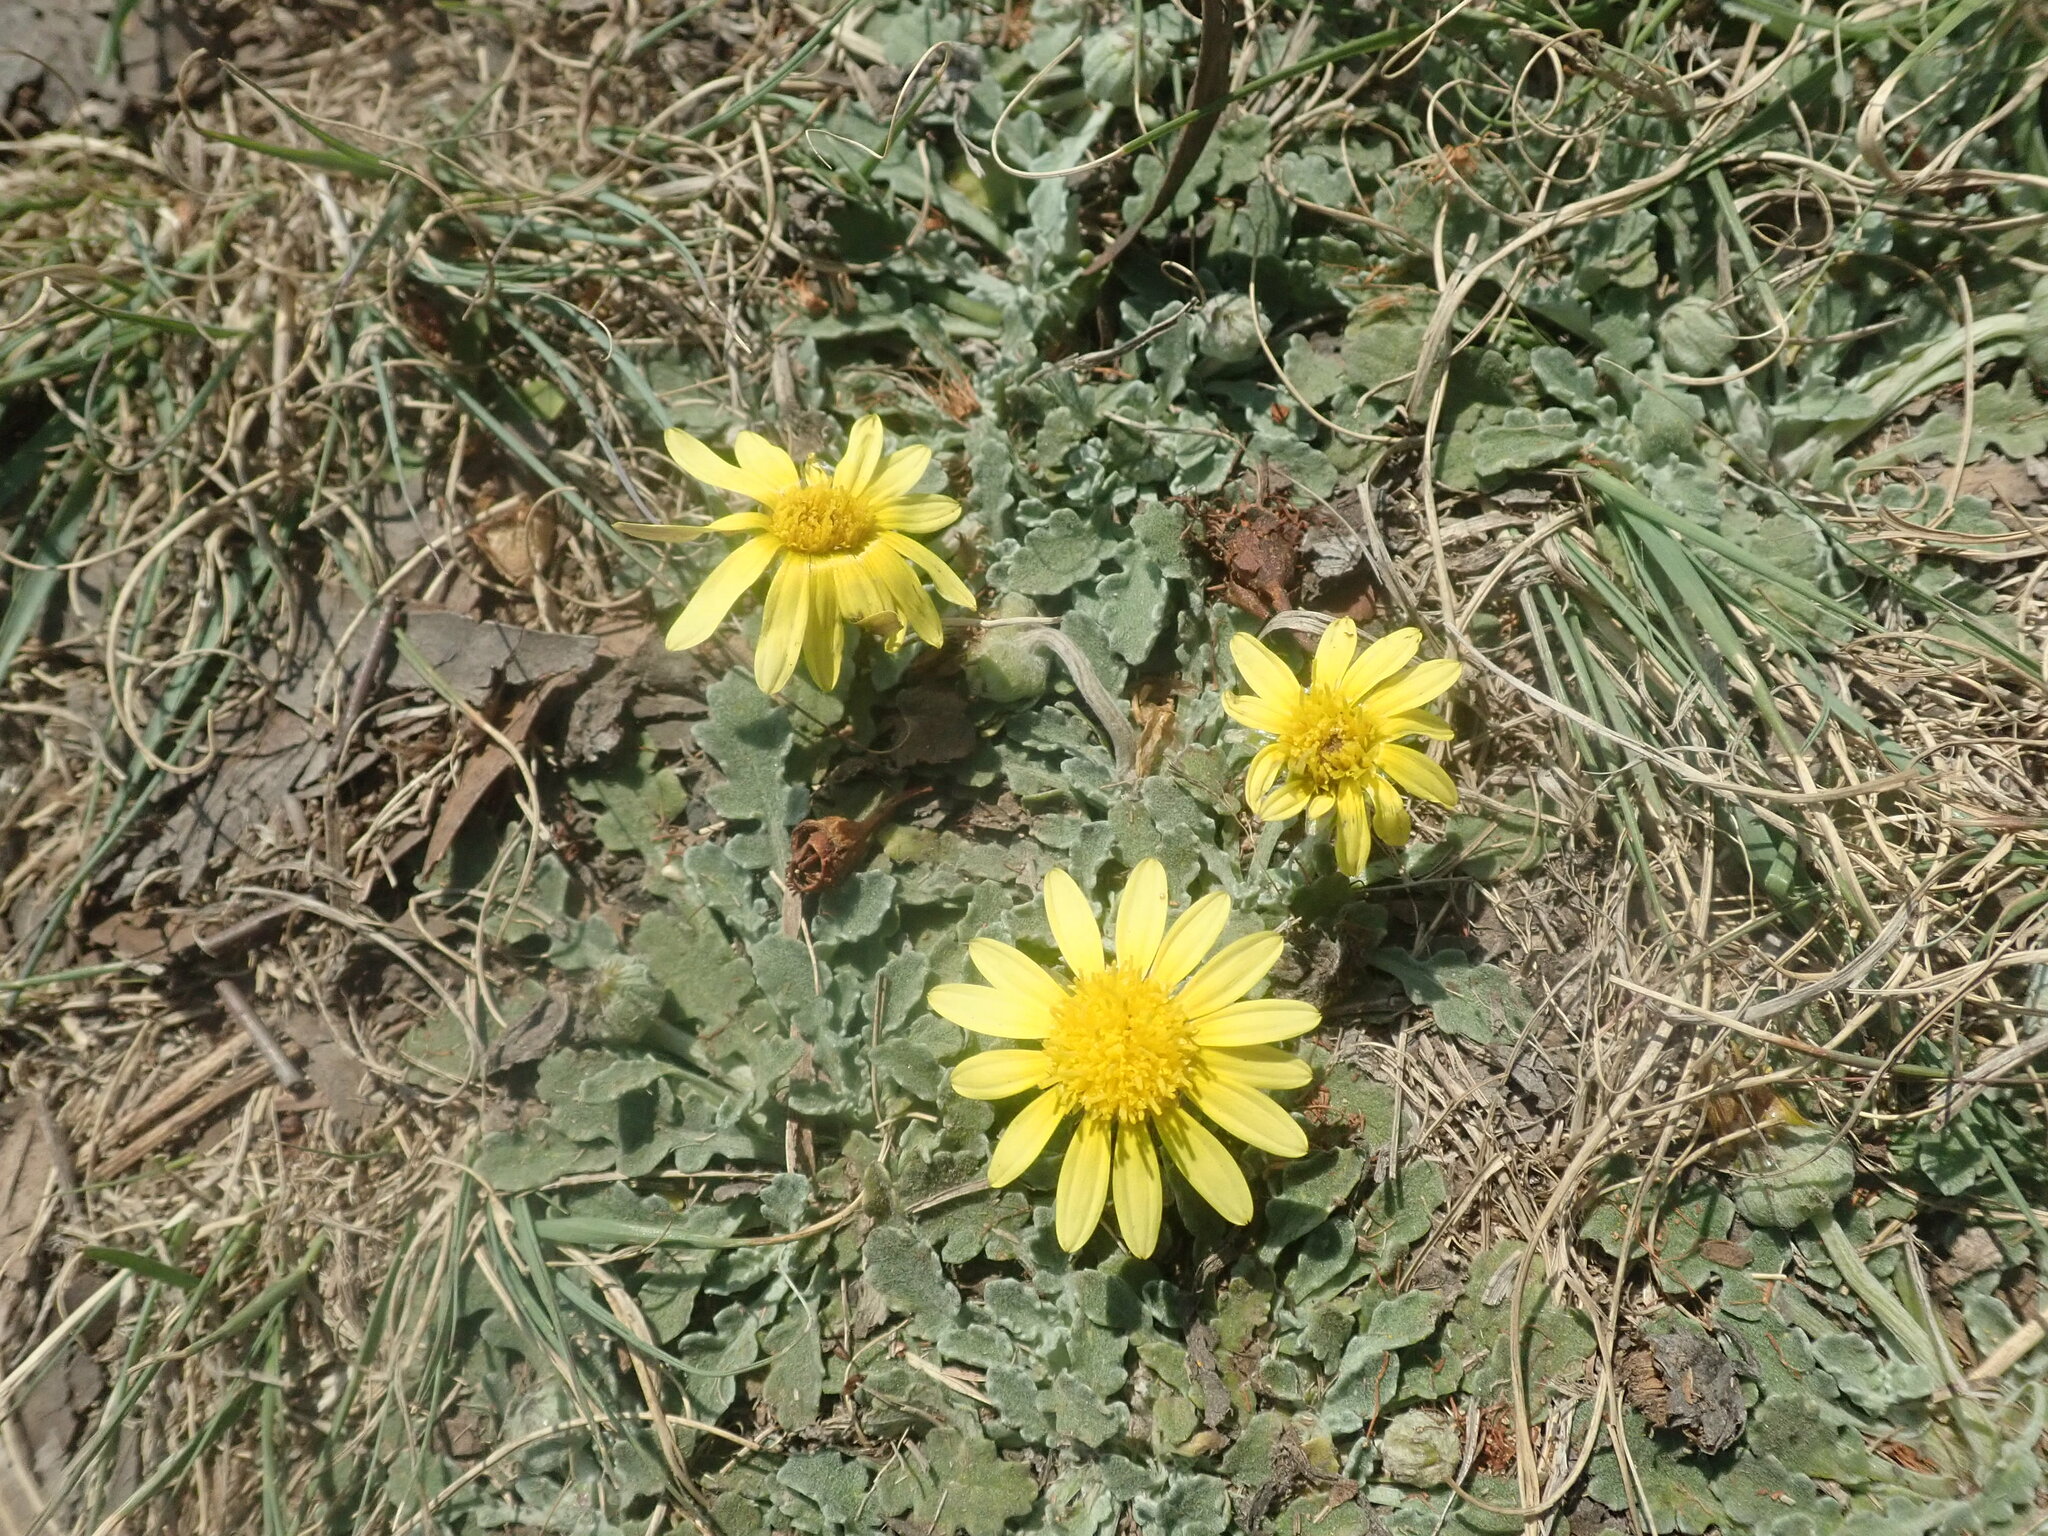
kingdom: Plantae
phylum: Tracheophyta
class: Magnoliopsida
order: Asterales
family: Asteraceae
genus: Arctotis
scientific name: Arctotis arctotoides
